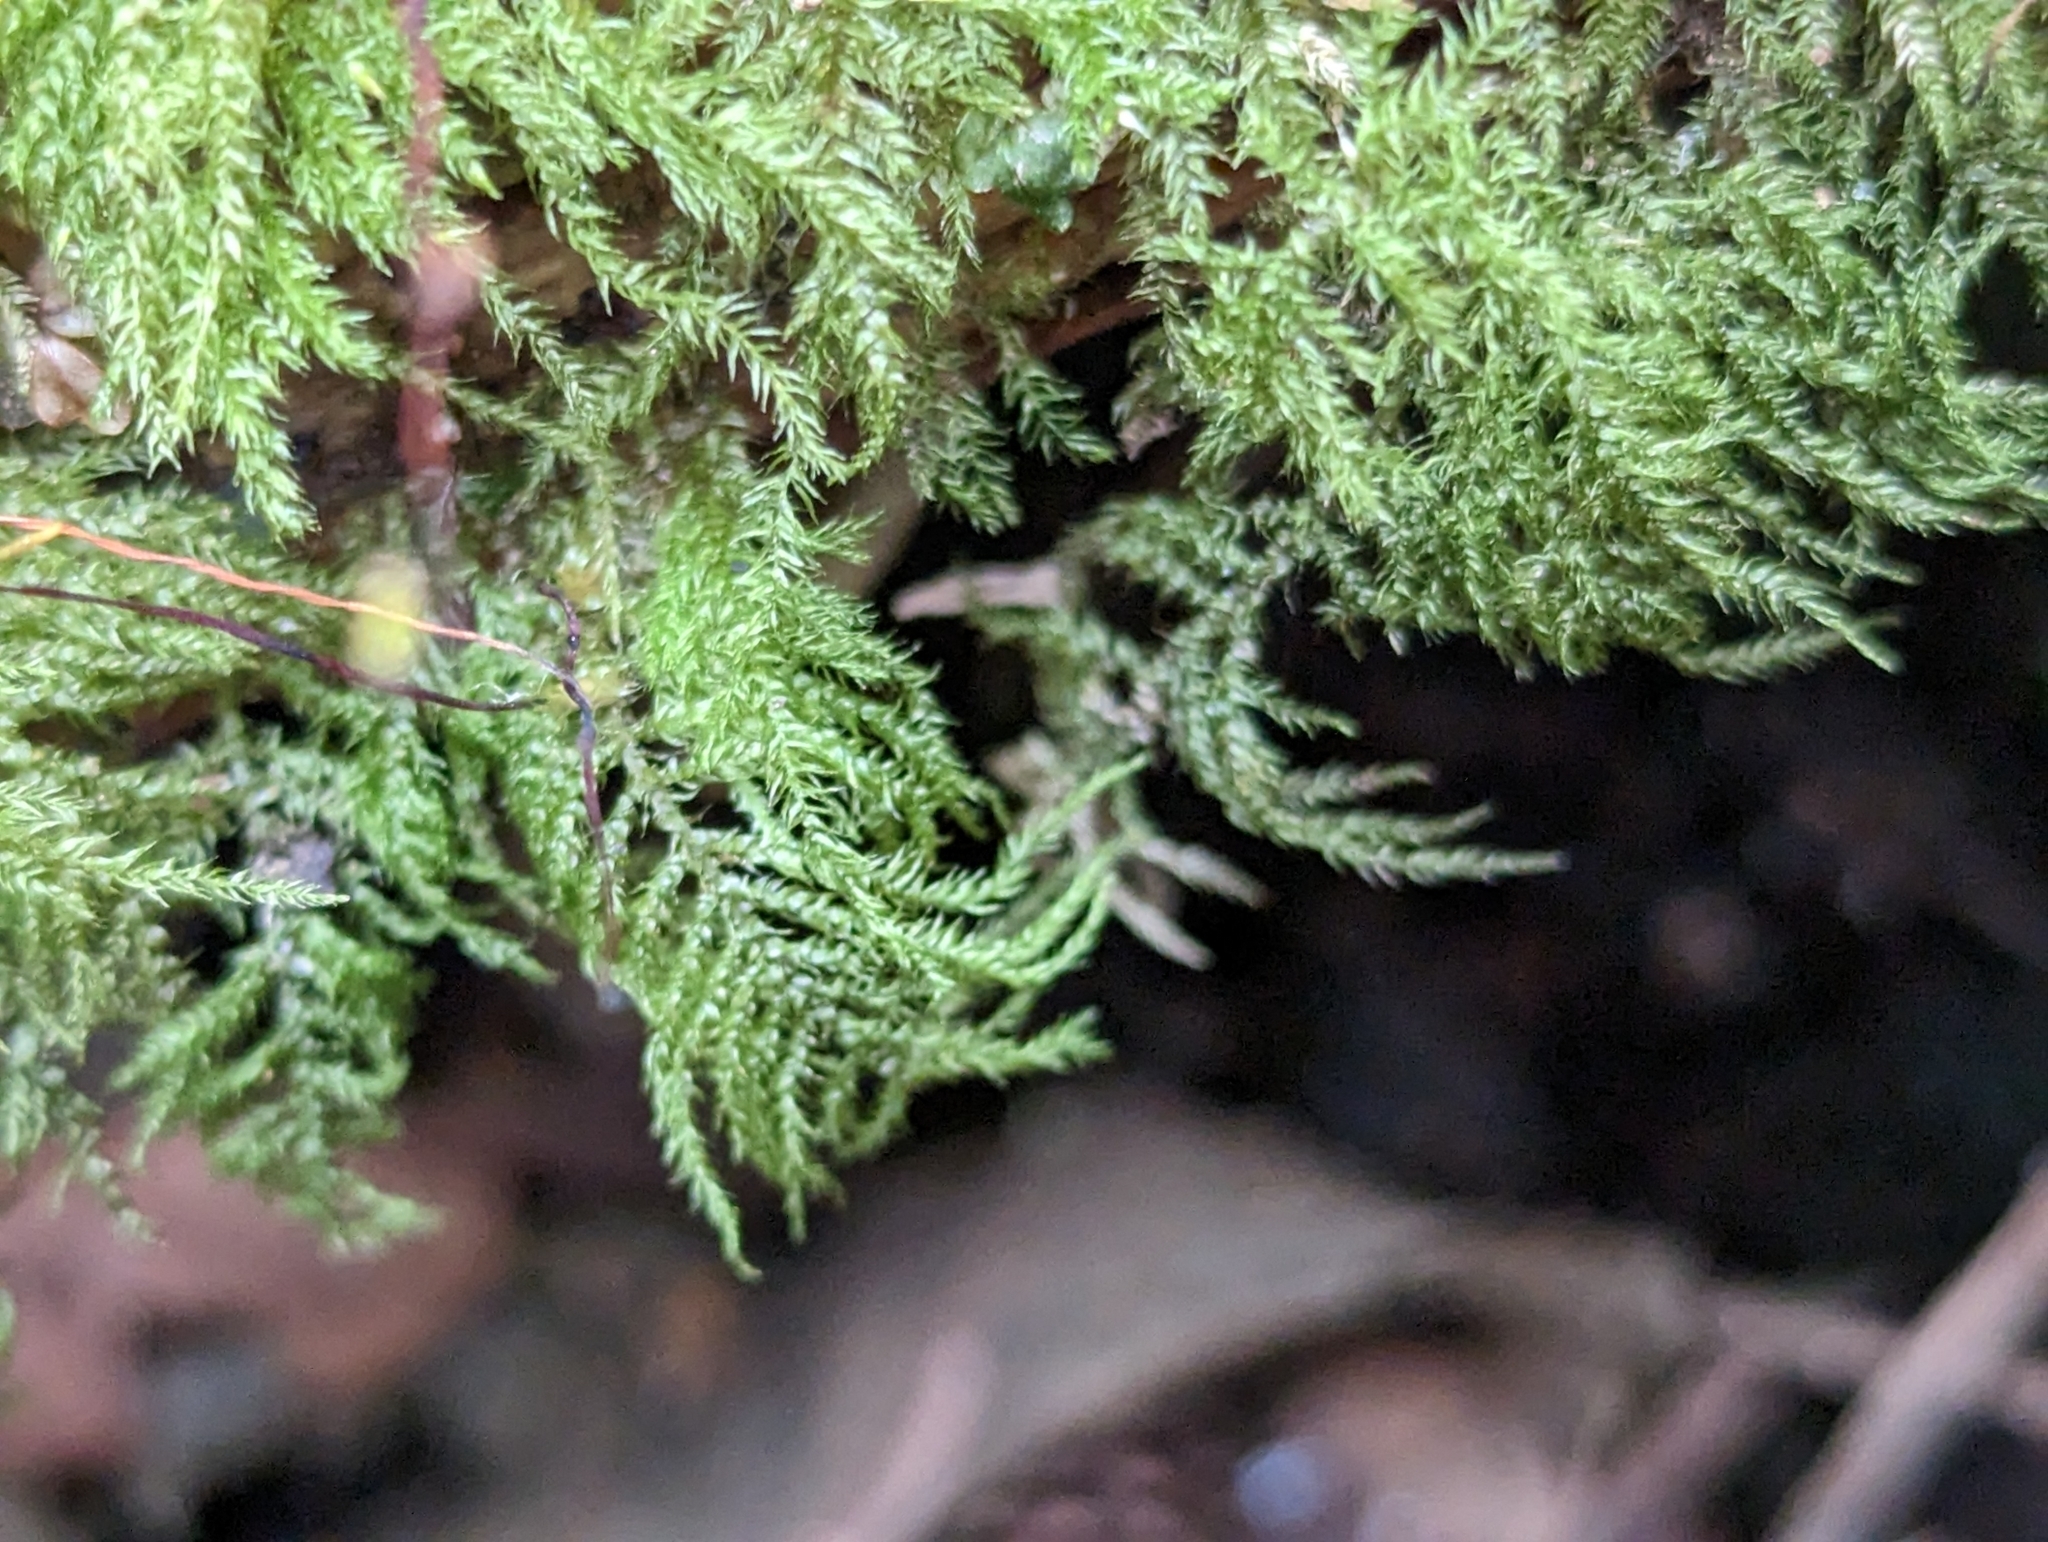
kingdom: Plantae
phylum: Bryophyta
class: Bryopsida
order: Hypnales
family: Brachytheciaceae
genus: Kindbergia
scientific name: Kindbergia praelonga
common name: Slender beaked moss
